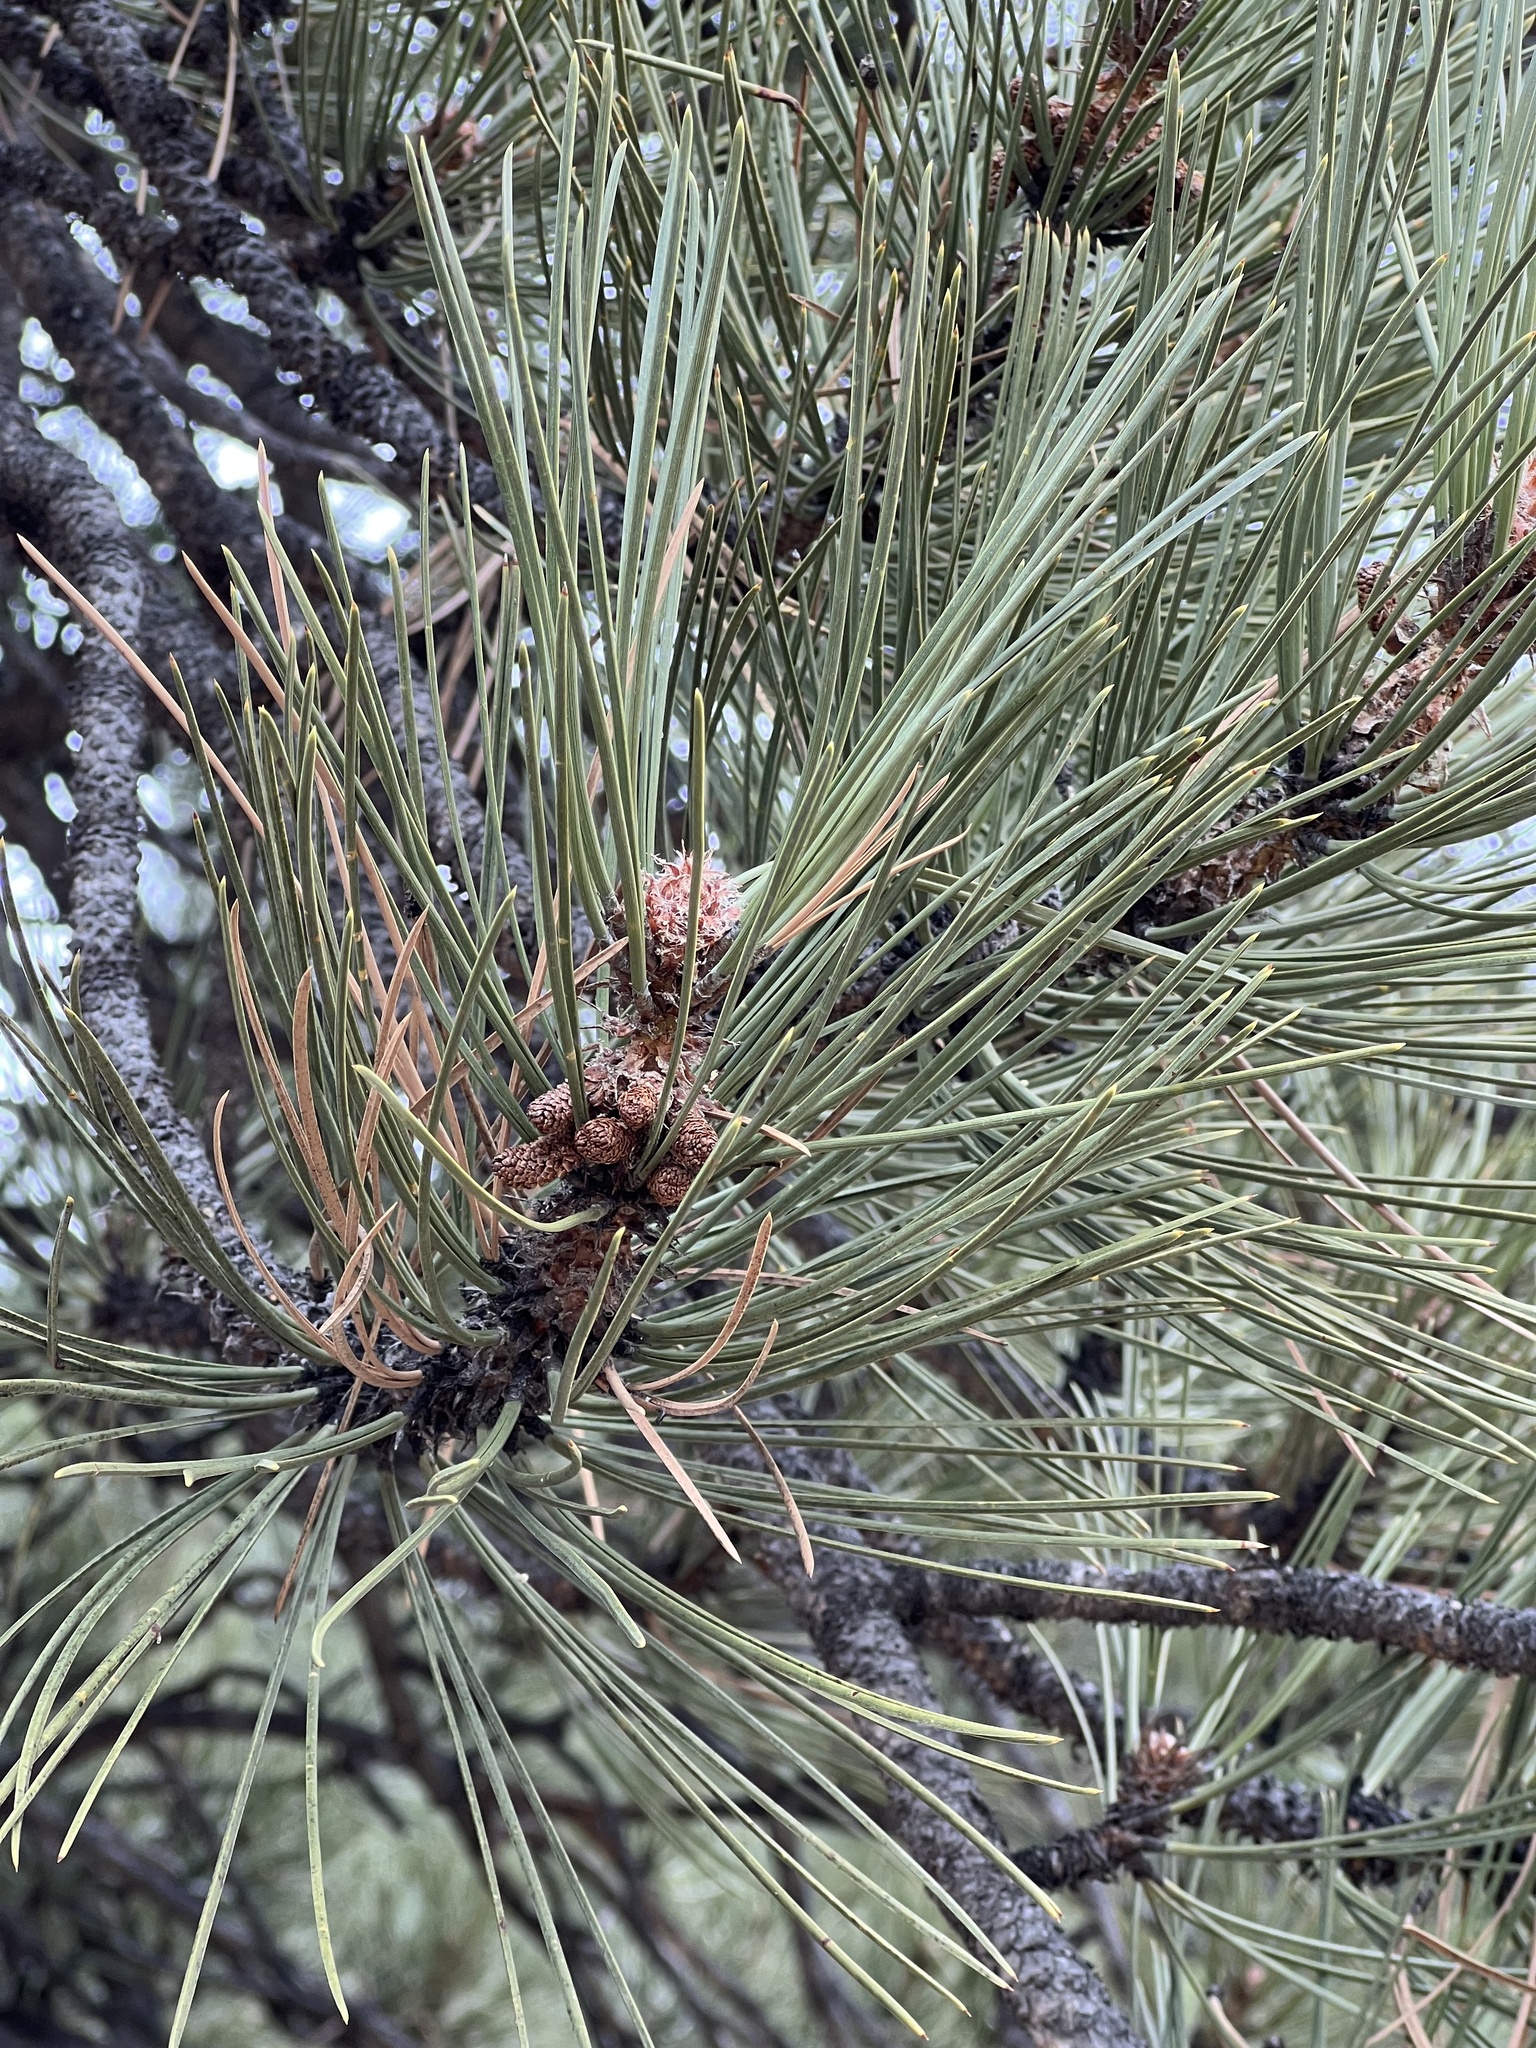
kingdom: Plantae
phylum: Tracheophyta
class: Pinopsida
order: Pinales
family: Pinaceae
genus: Pinus
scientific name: Pinus ponderosa
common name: Western yellow-pine
